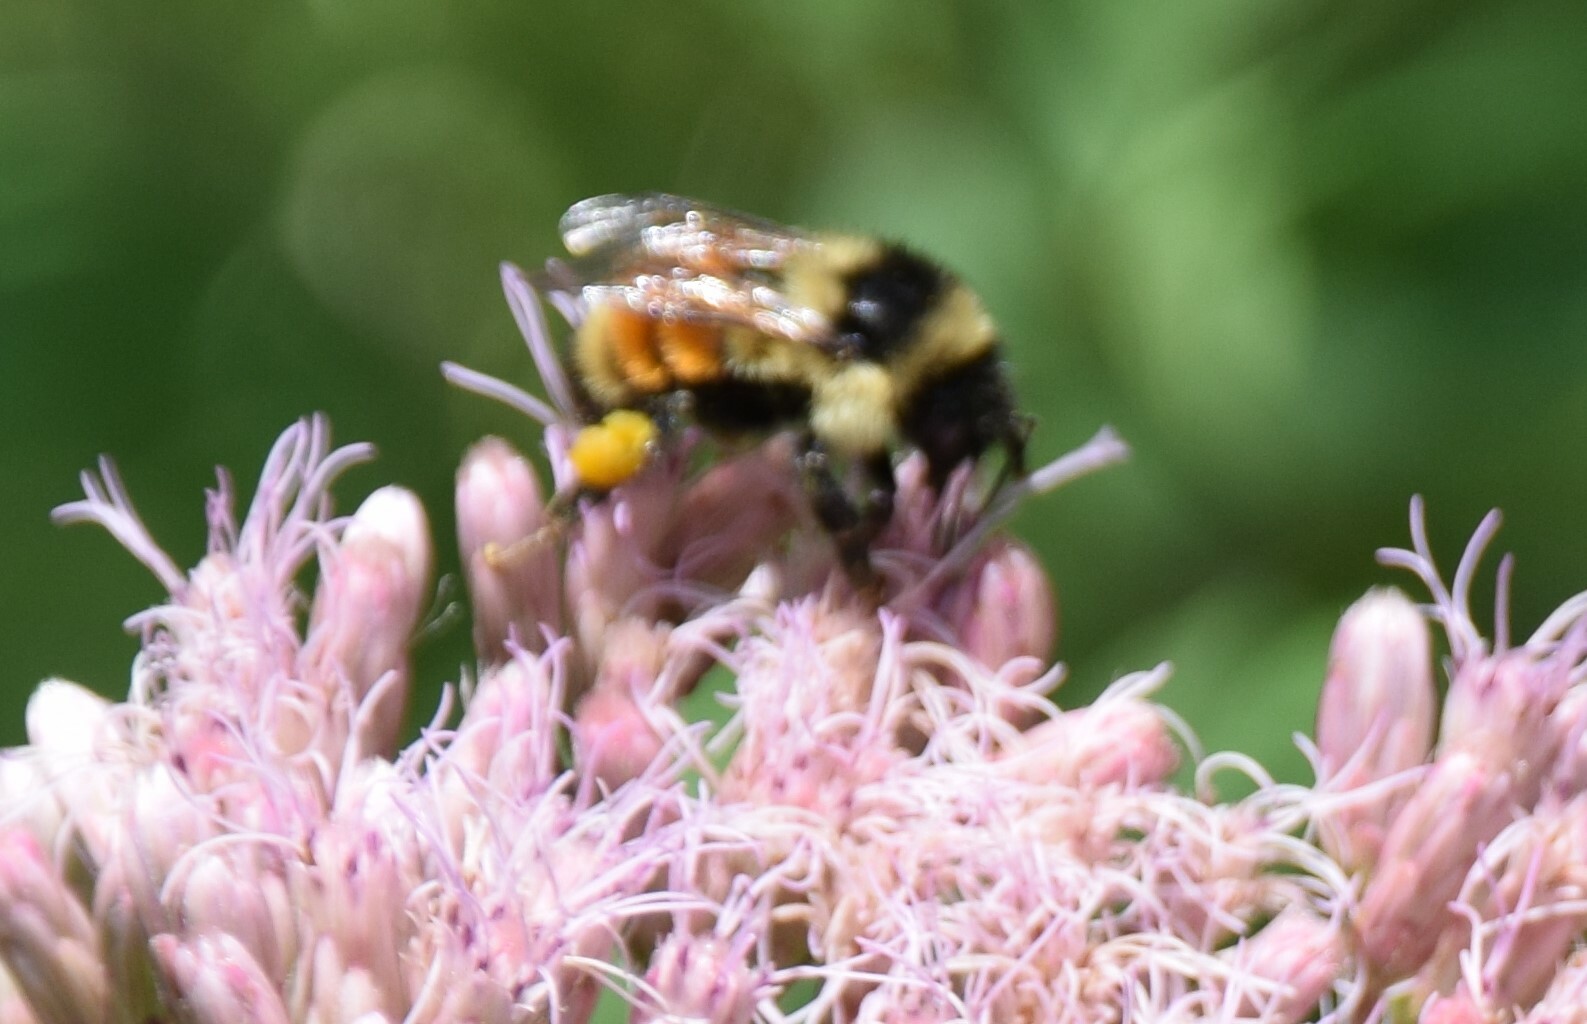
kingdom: Animalia
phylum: Arthropoda
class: Insecta
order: Hymenoptera
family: Apidae
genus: Bombus
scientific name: Bombus ternarius
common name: Tri-colored bumble bee
